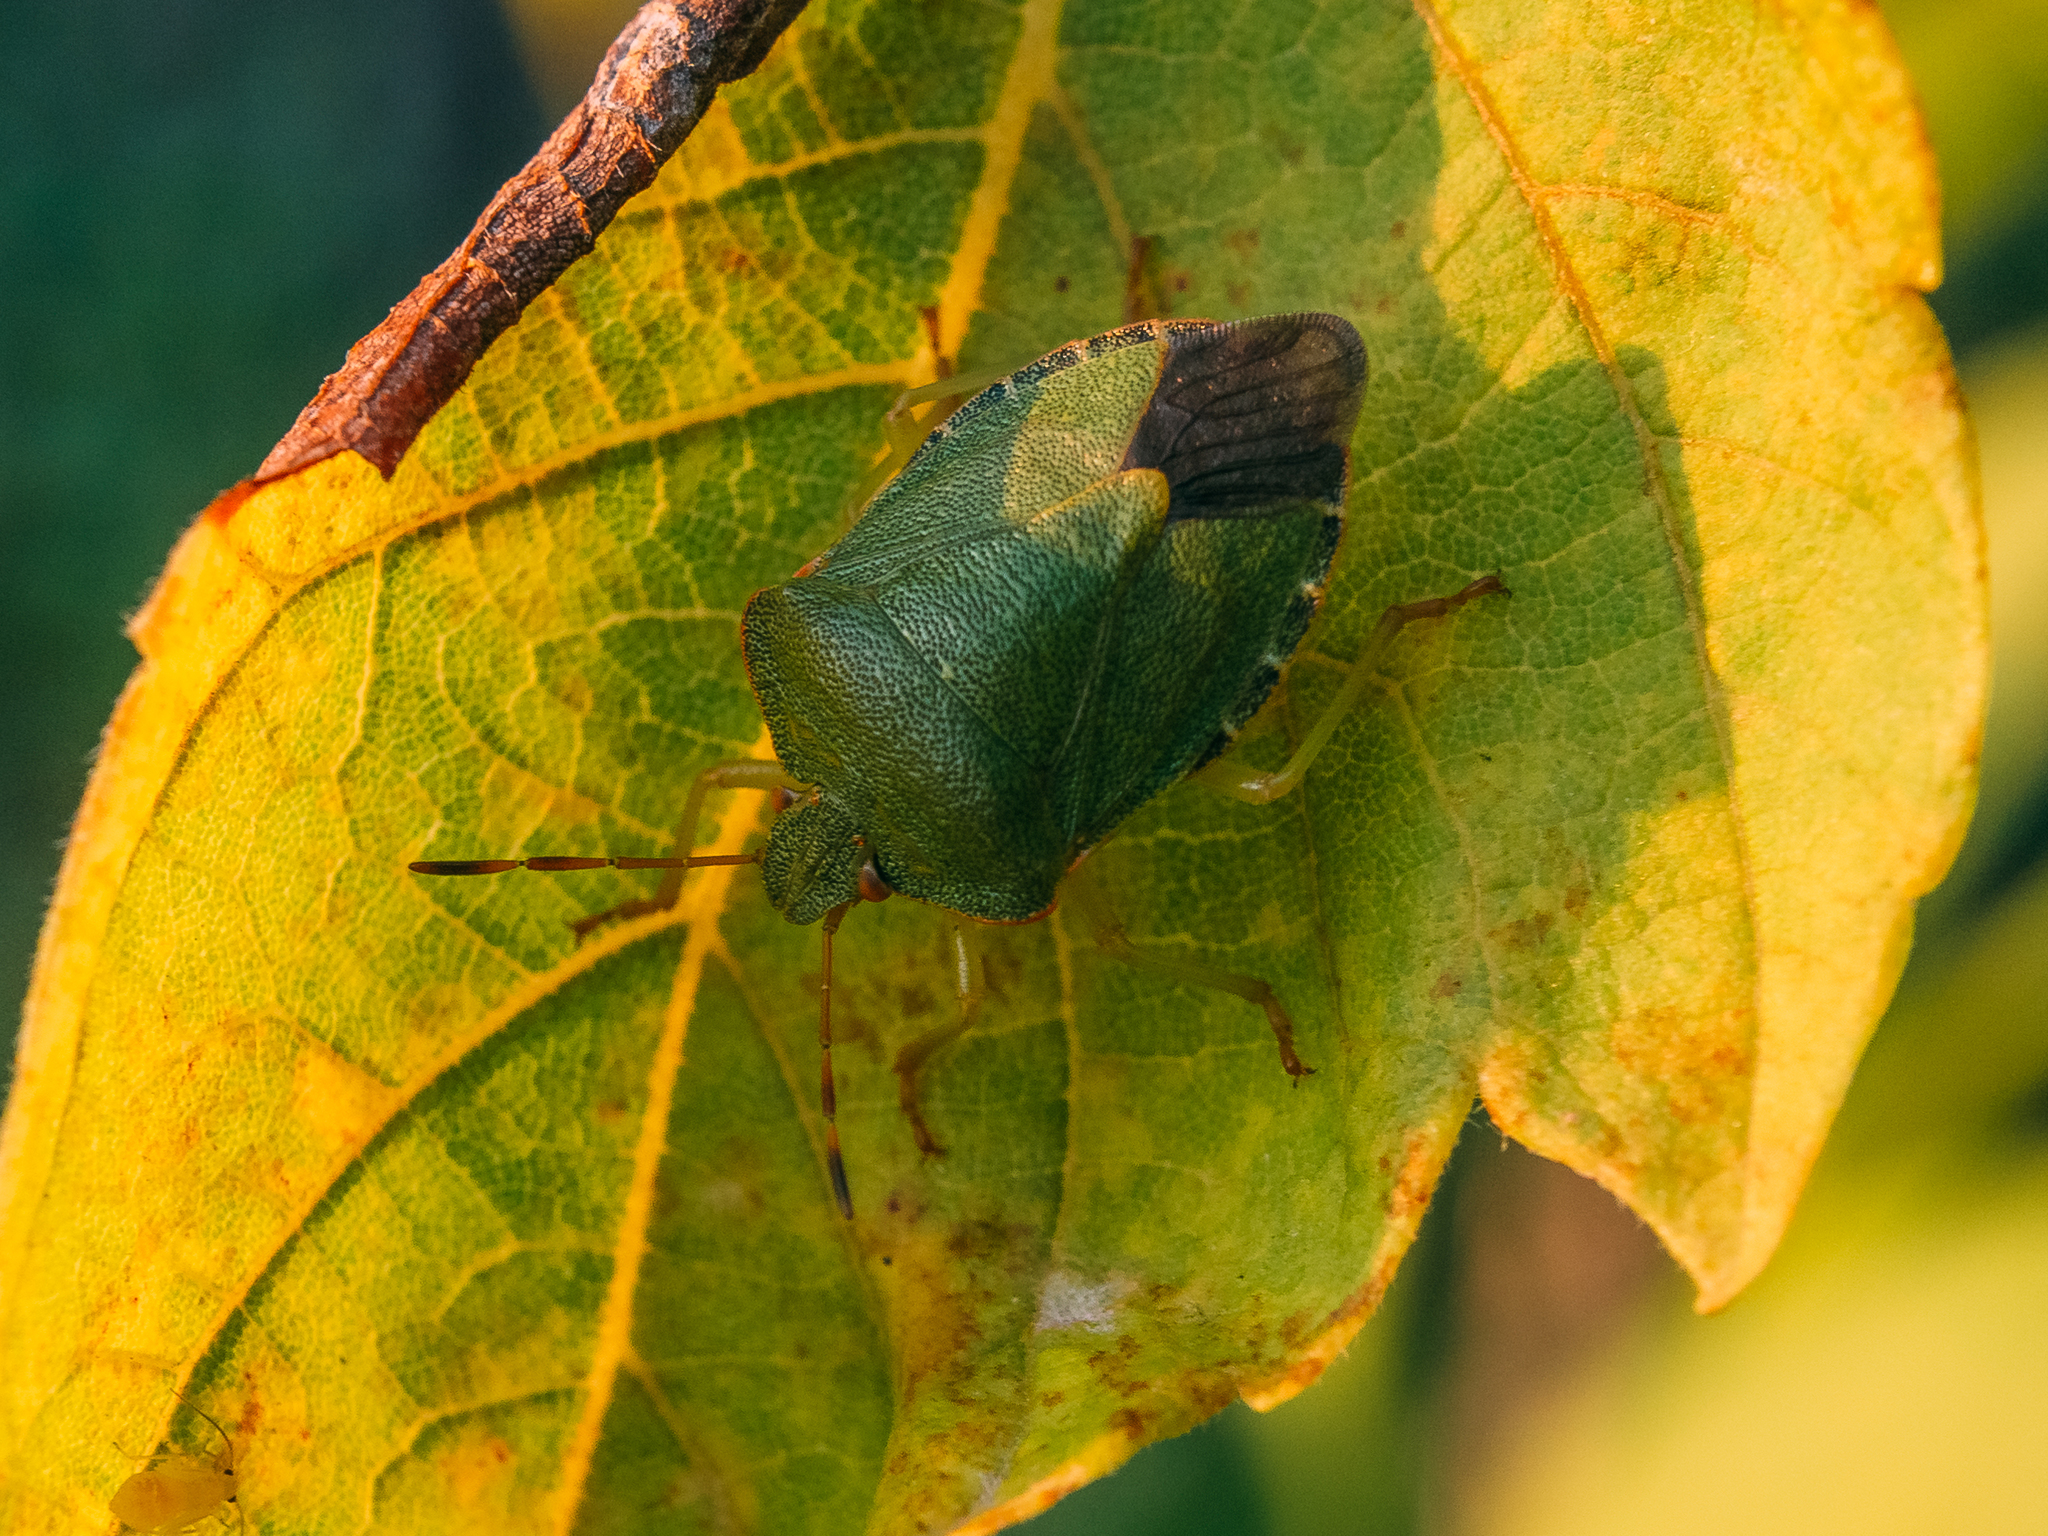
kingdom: Animalia
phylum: Arthropoda
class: Insecta
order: Hemiptera
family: Pentatomidae
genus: Palomena
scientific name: Palomena prasina
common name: Green shieldbug
